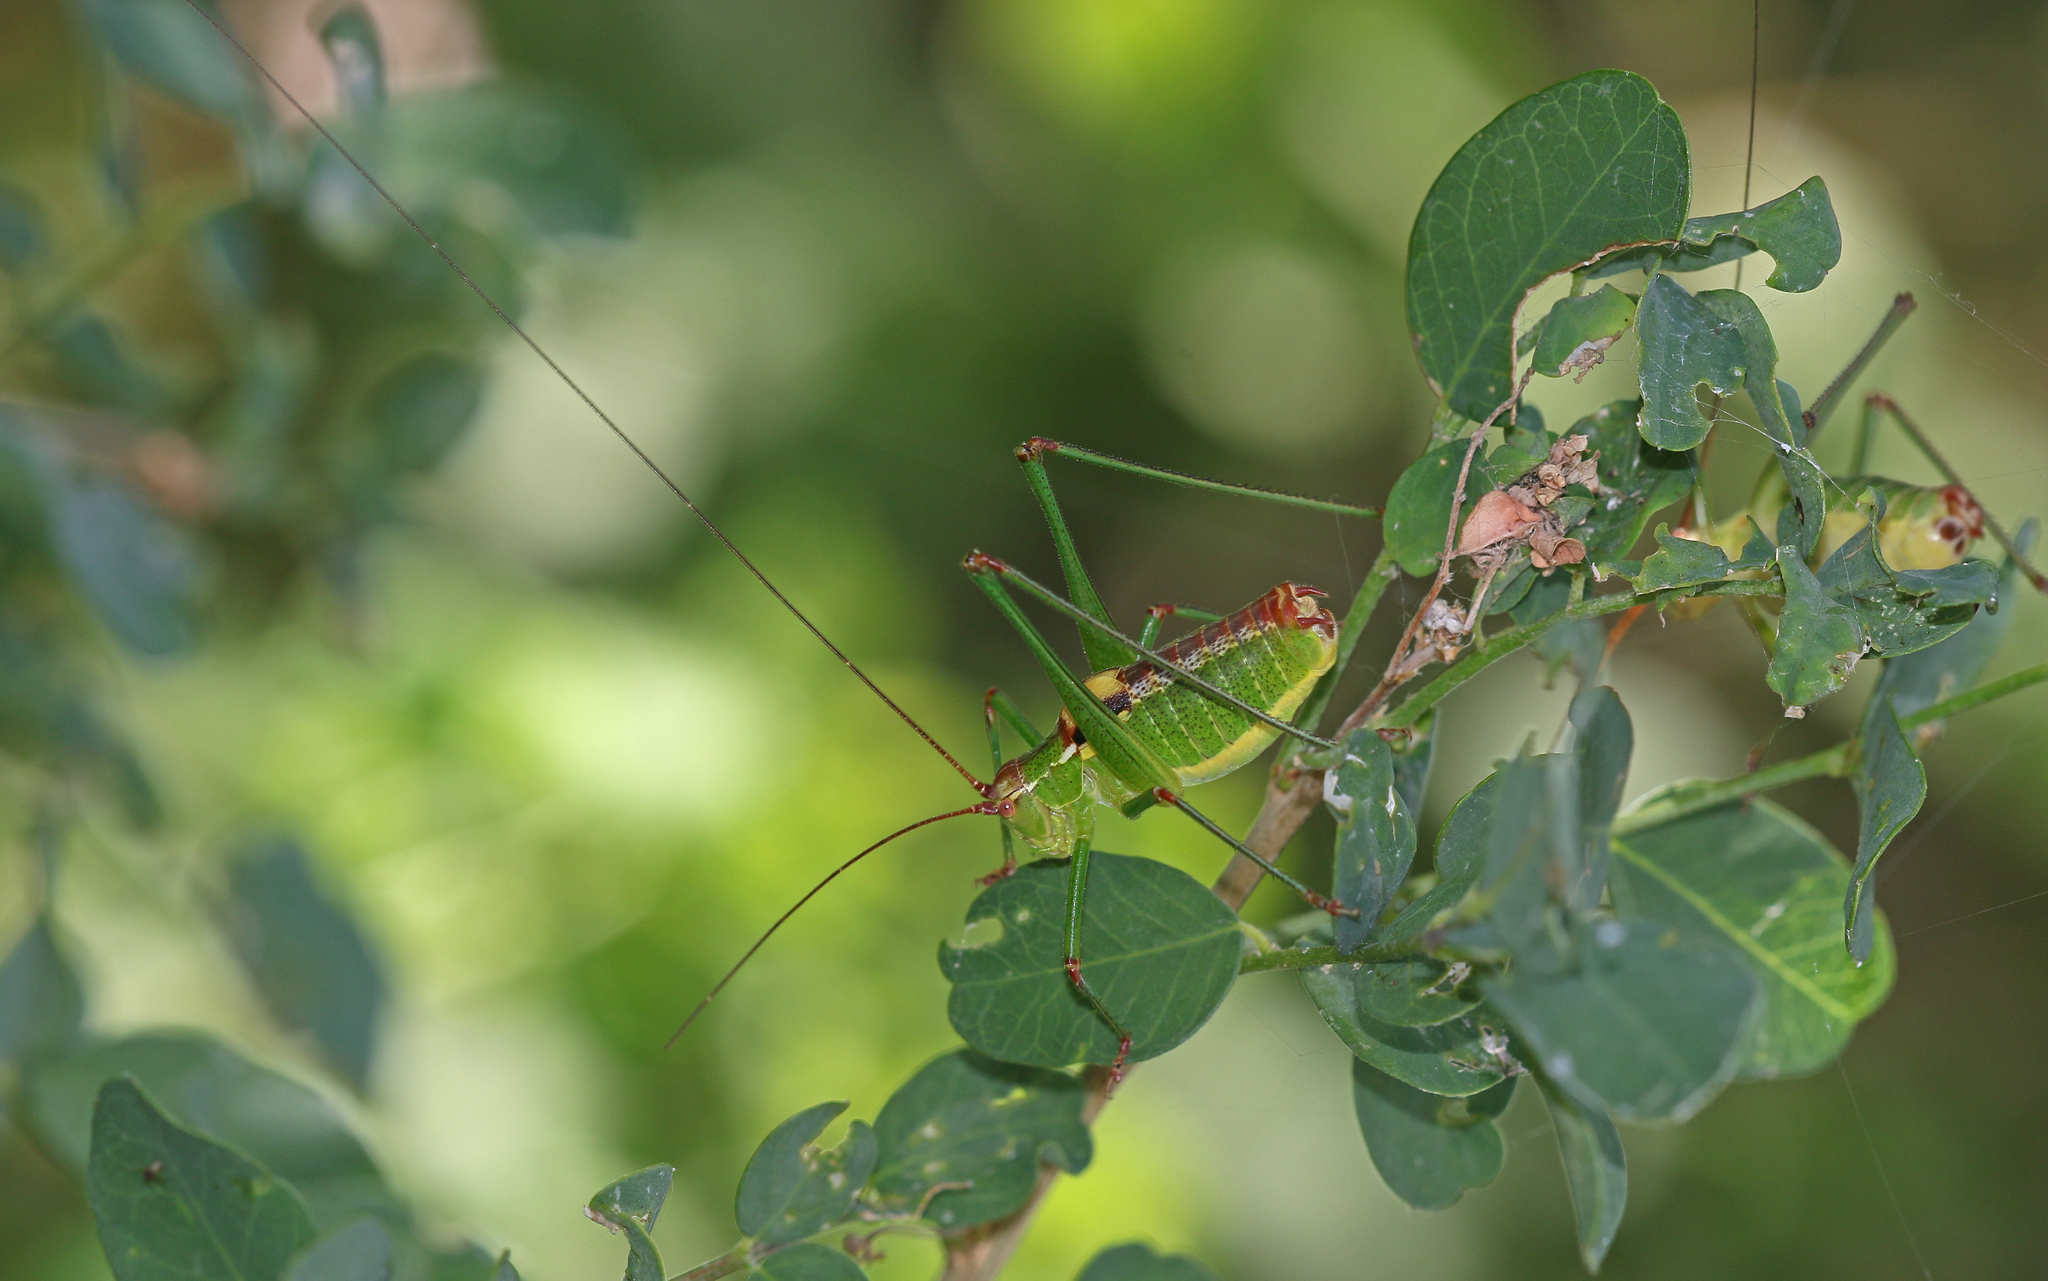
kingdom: Animalia
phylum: Arthropoda
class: Insecta
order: Orthoptera
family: Tettigoniidae
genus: Ancistrura
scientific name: Ancistrura nigrovittata
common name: Blackwinged saw bush-cricket
